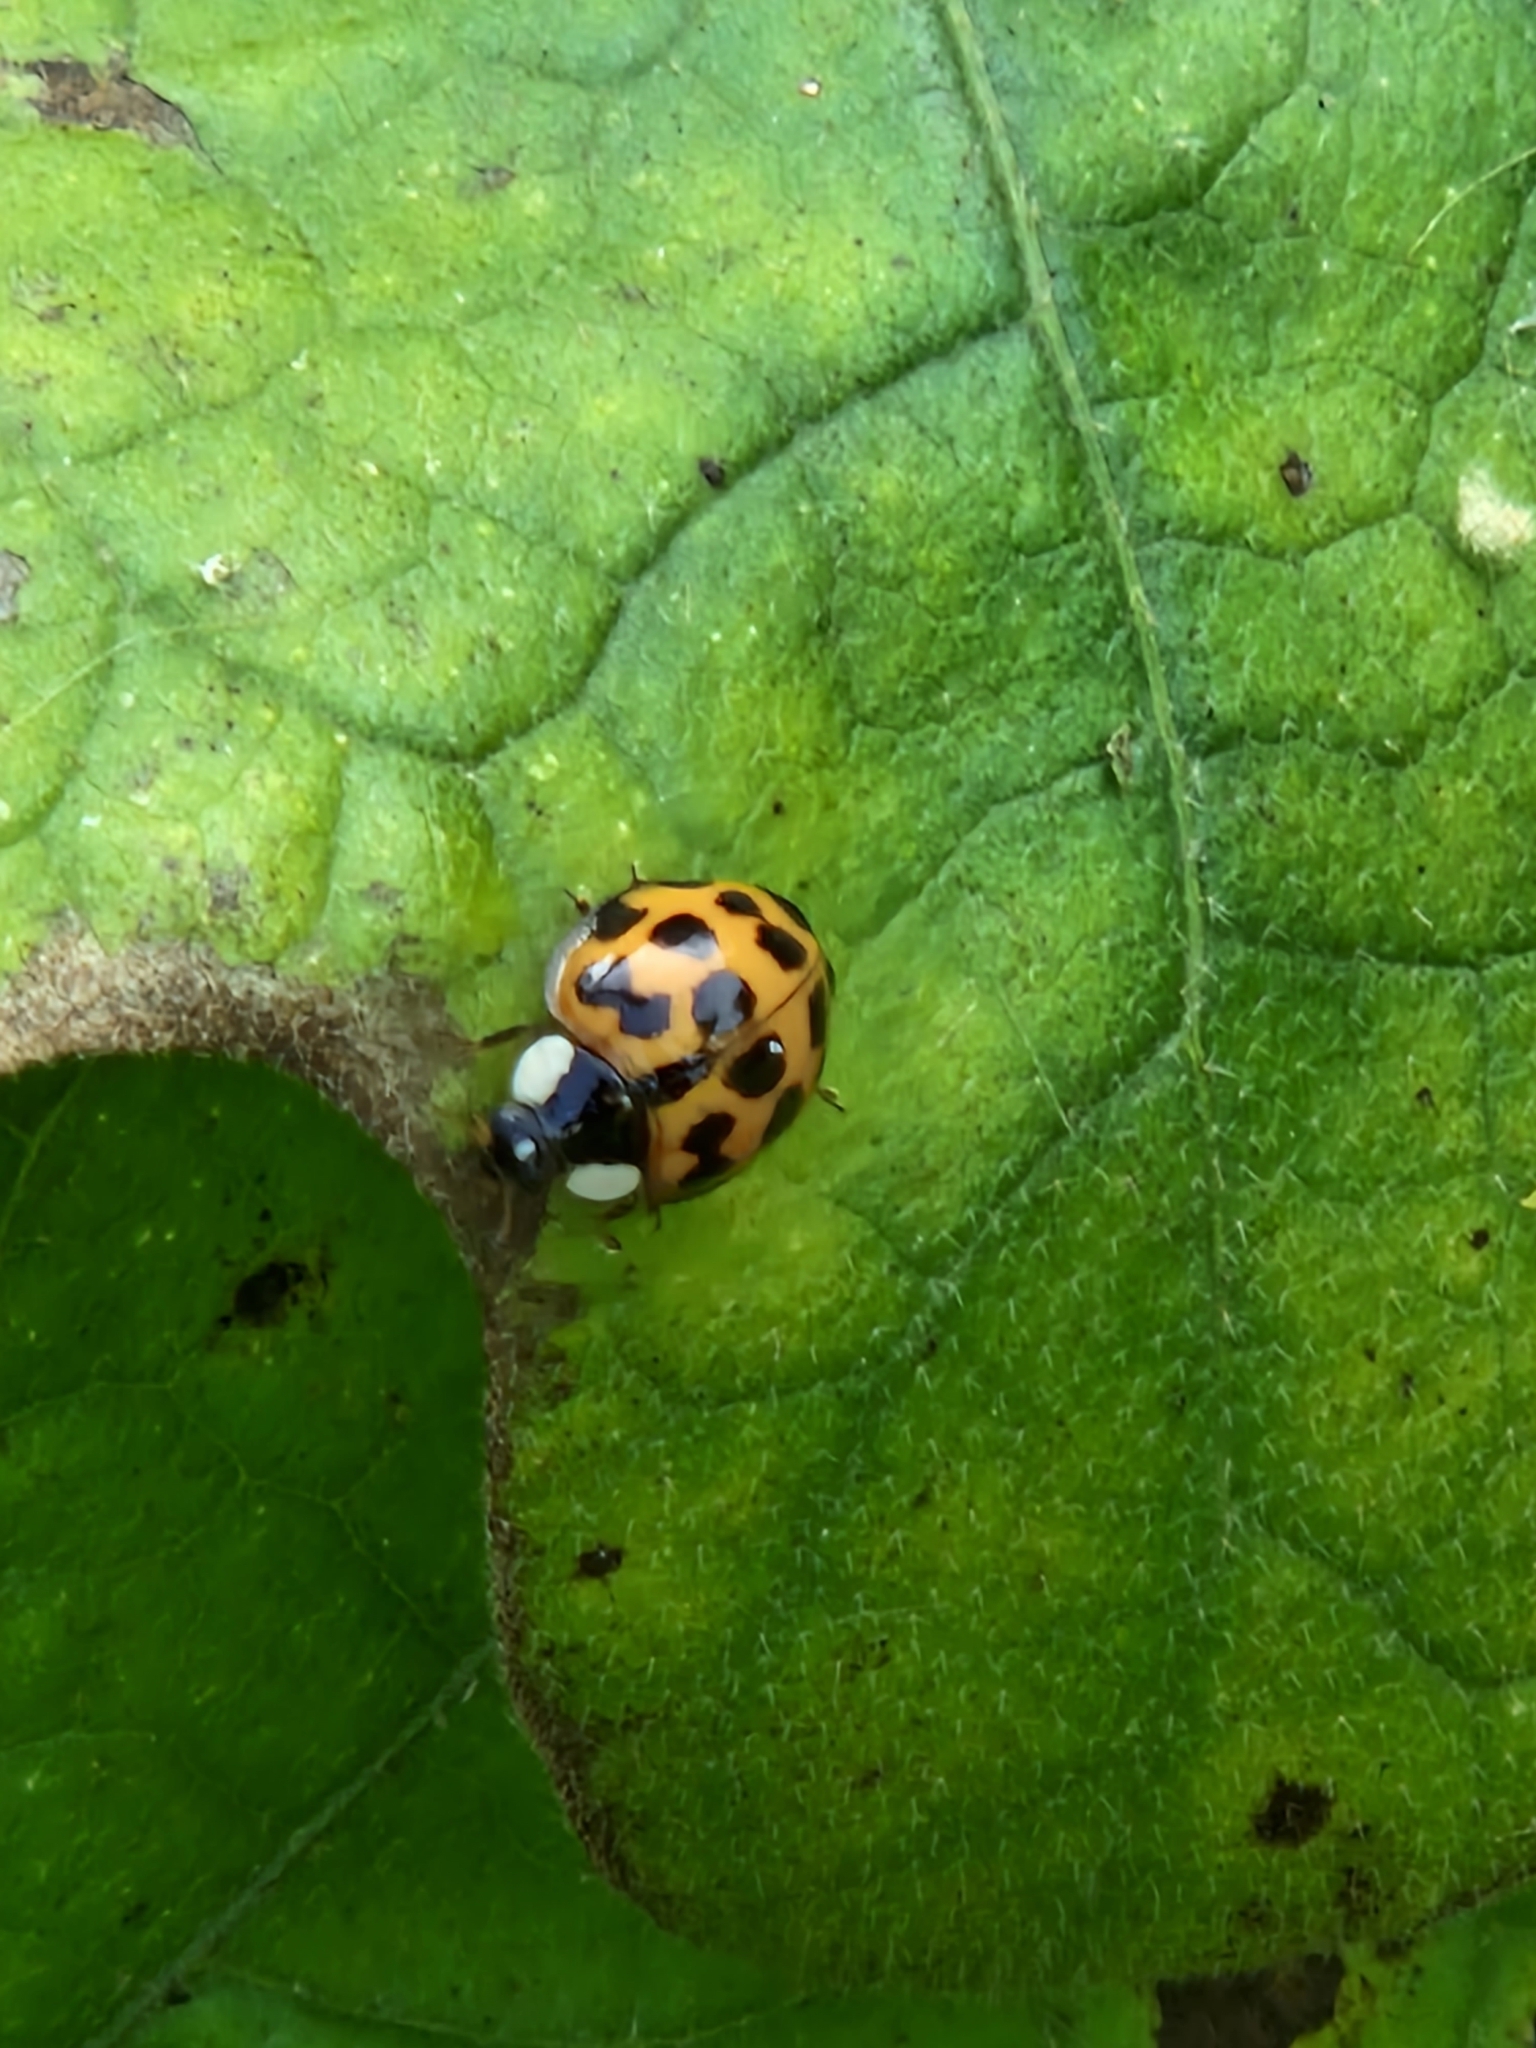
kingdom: Animalia
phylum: Arthropoda
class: Insecta
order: Coleoptera
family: Coccinellidae
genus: Harmonia
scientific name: Harmonia axyridis
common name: Harlequin ladybird
